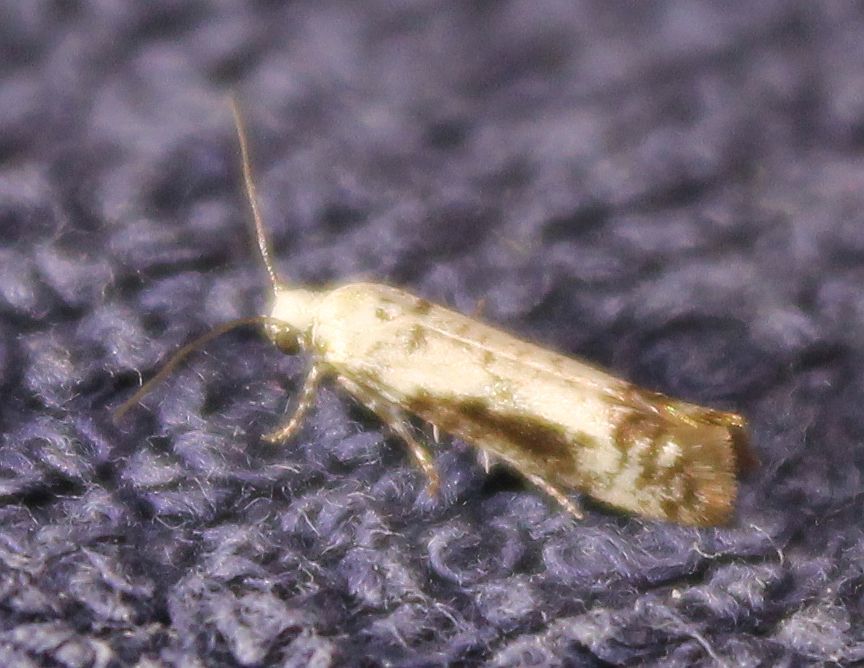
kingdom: Animalia
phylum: Arthropoda
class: Insecta
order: Lepidoptera
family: Praydidae
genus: Prays
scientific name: Prays fraxinella
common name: Ash bud moth
